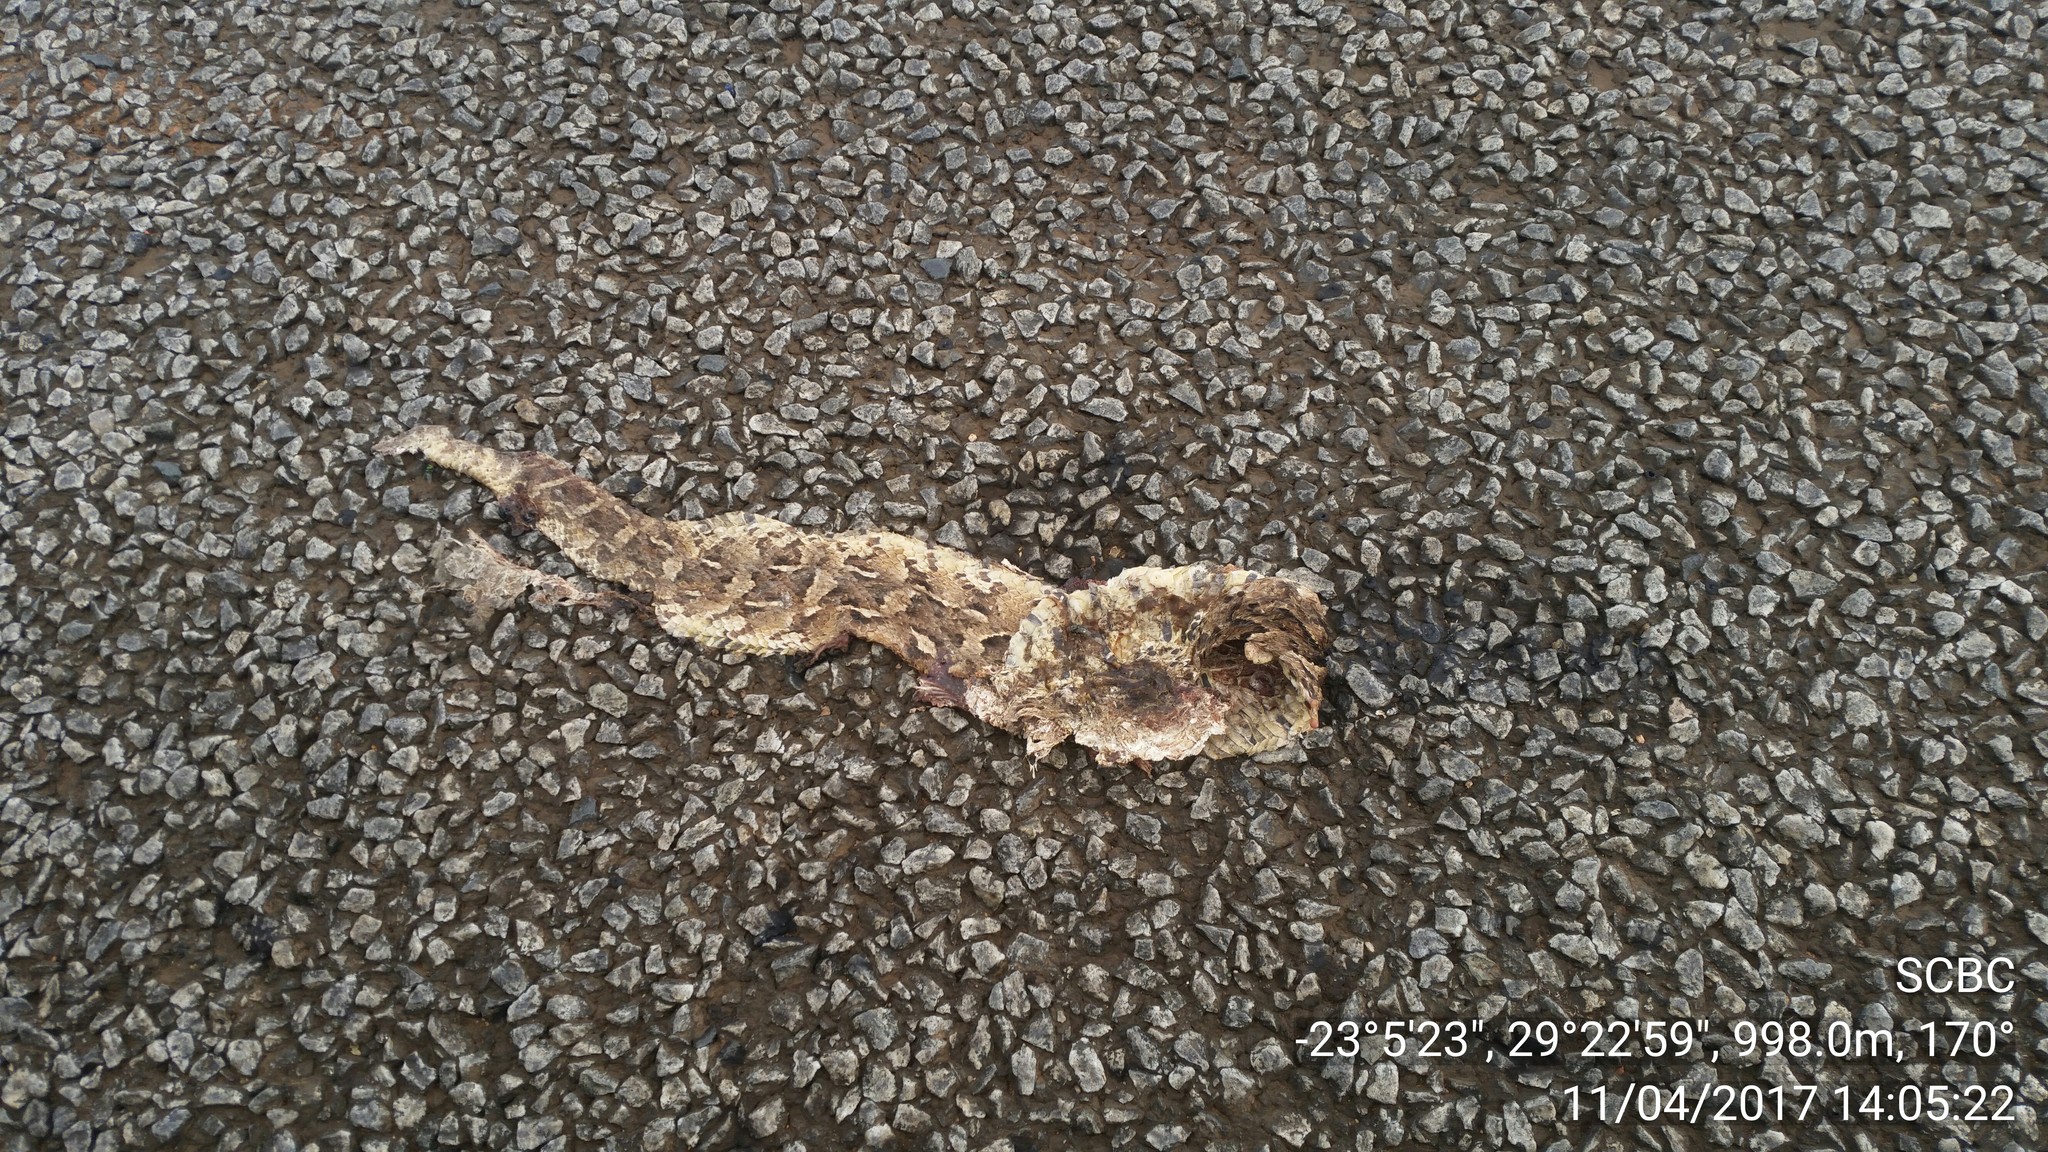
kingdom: Animalia
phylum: Chordata
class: Squamata
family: Viperidae
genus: Bitis
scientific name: Bitis arietans
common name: Puff adder
